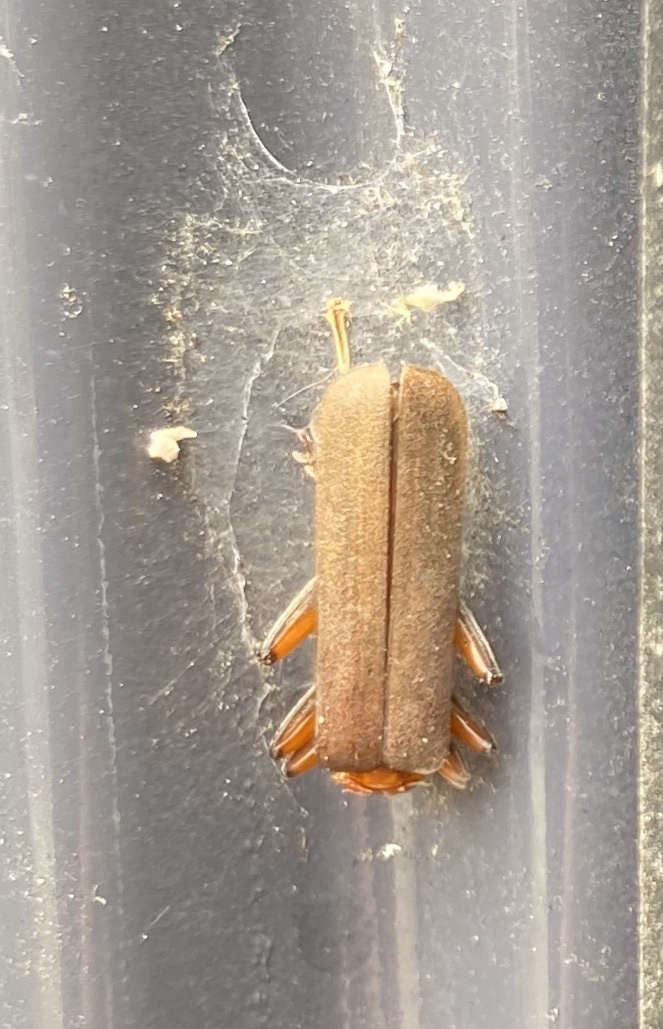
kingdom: Animalia
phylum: Arthropoda
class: Insecta
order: Coleoptera
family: Cantharidae
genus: Pacificanthia
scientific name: Pacificanthia consors
